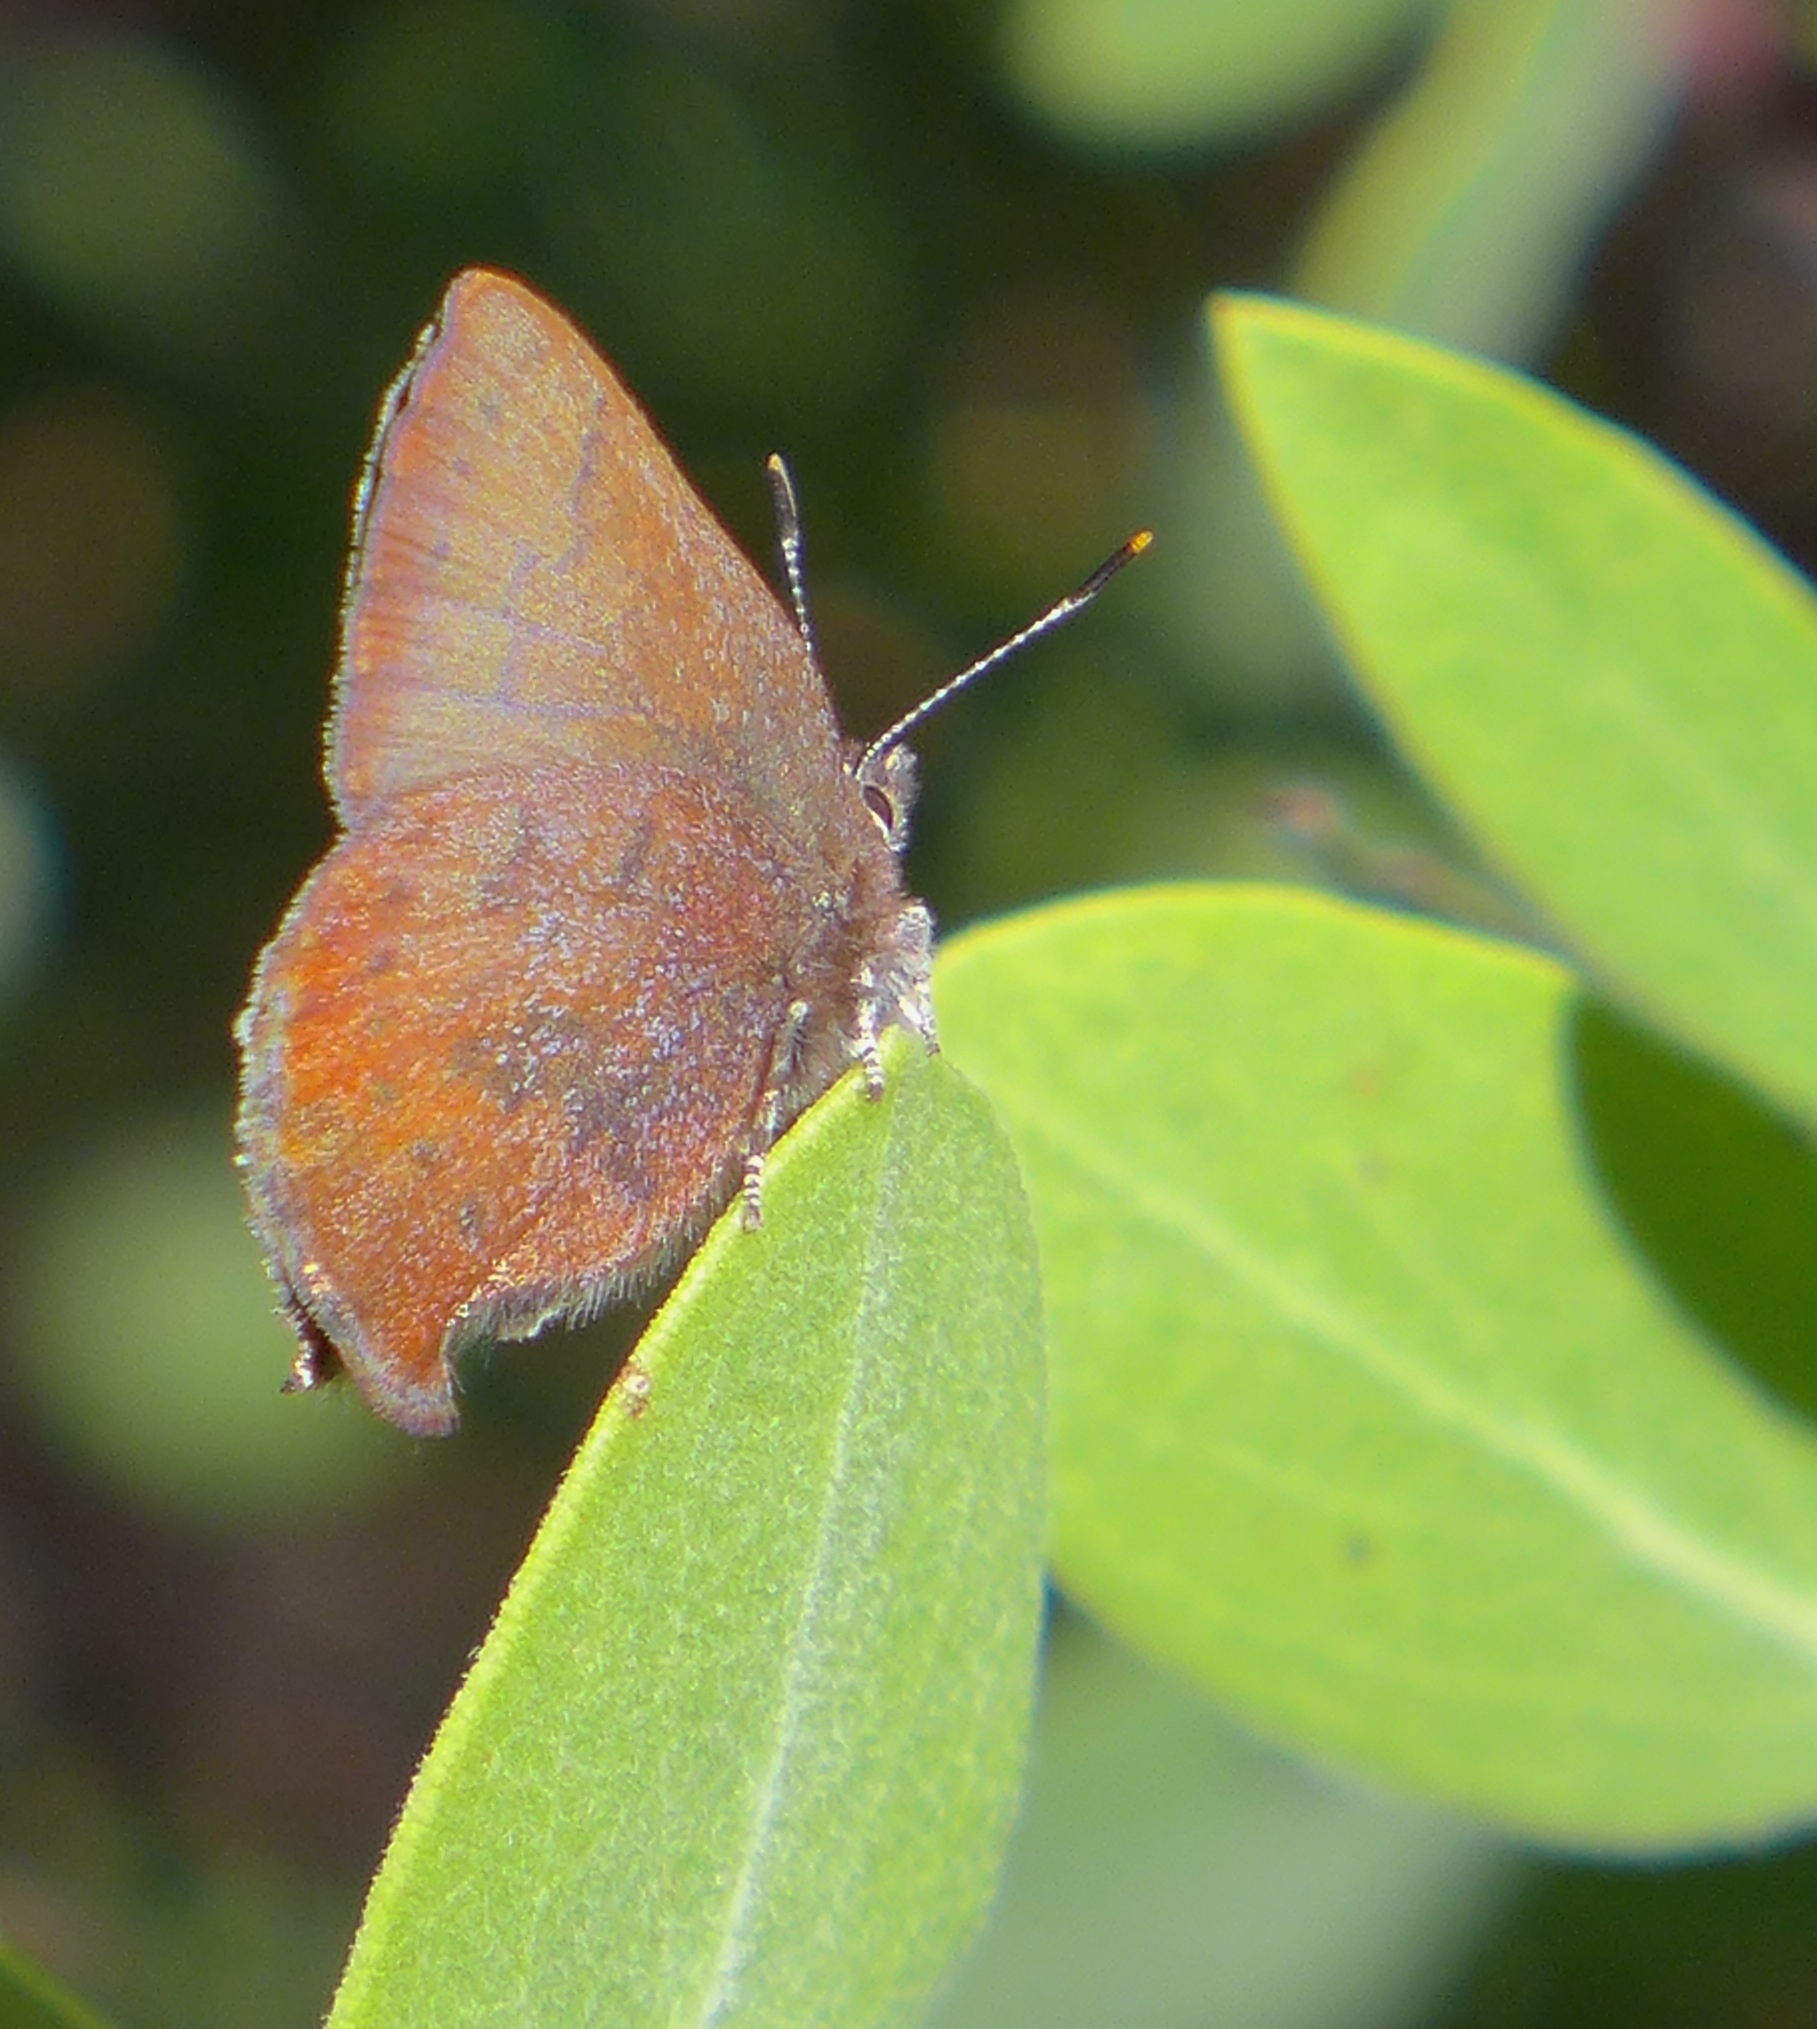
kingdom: Animalia
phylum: Arthropoda
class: Insecta
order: Lepidoptera
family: Lycaenidae
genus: Incisalia
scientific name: Incisalia irioides
